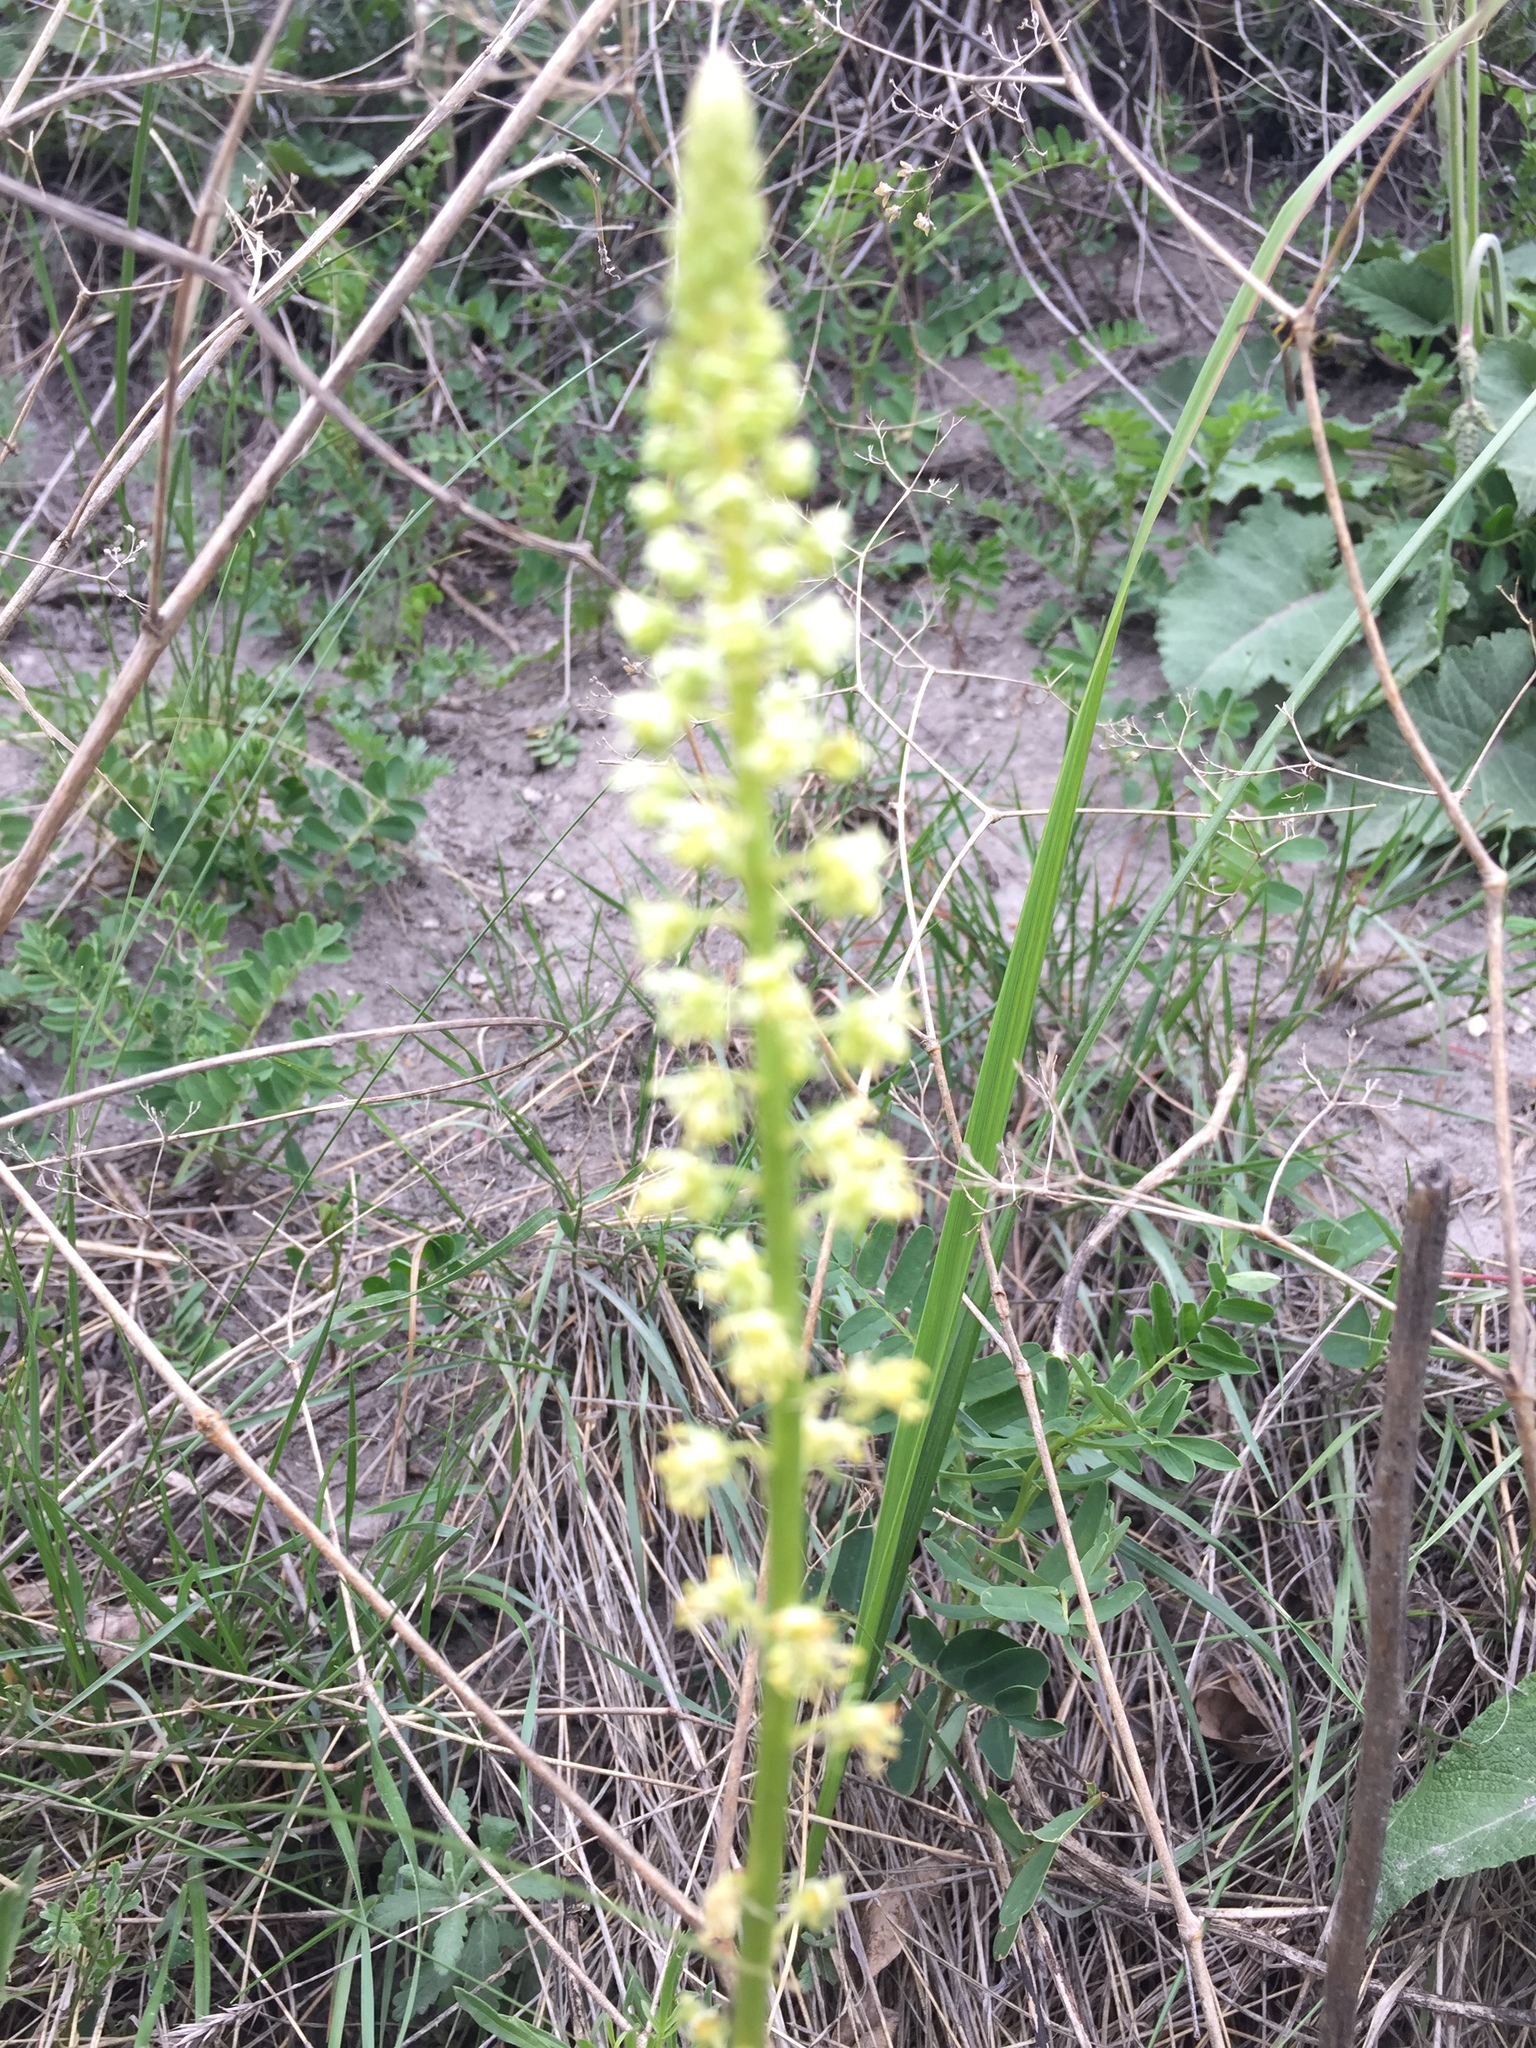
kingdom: Plantae
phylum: Tracheophyta
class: Magnoliopsida
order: Brassicales
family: Resedaceae
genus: Reseda
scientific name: Reseda lutea
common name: Wild mignonette
